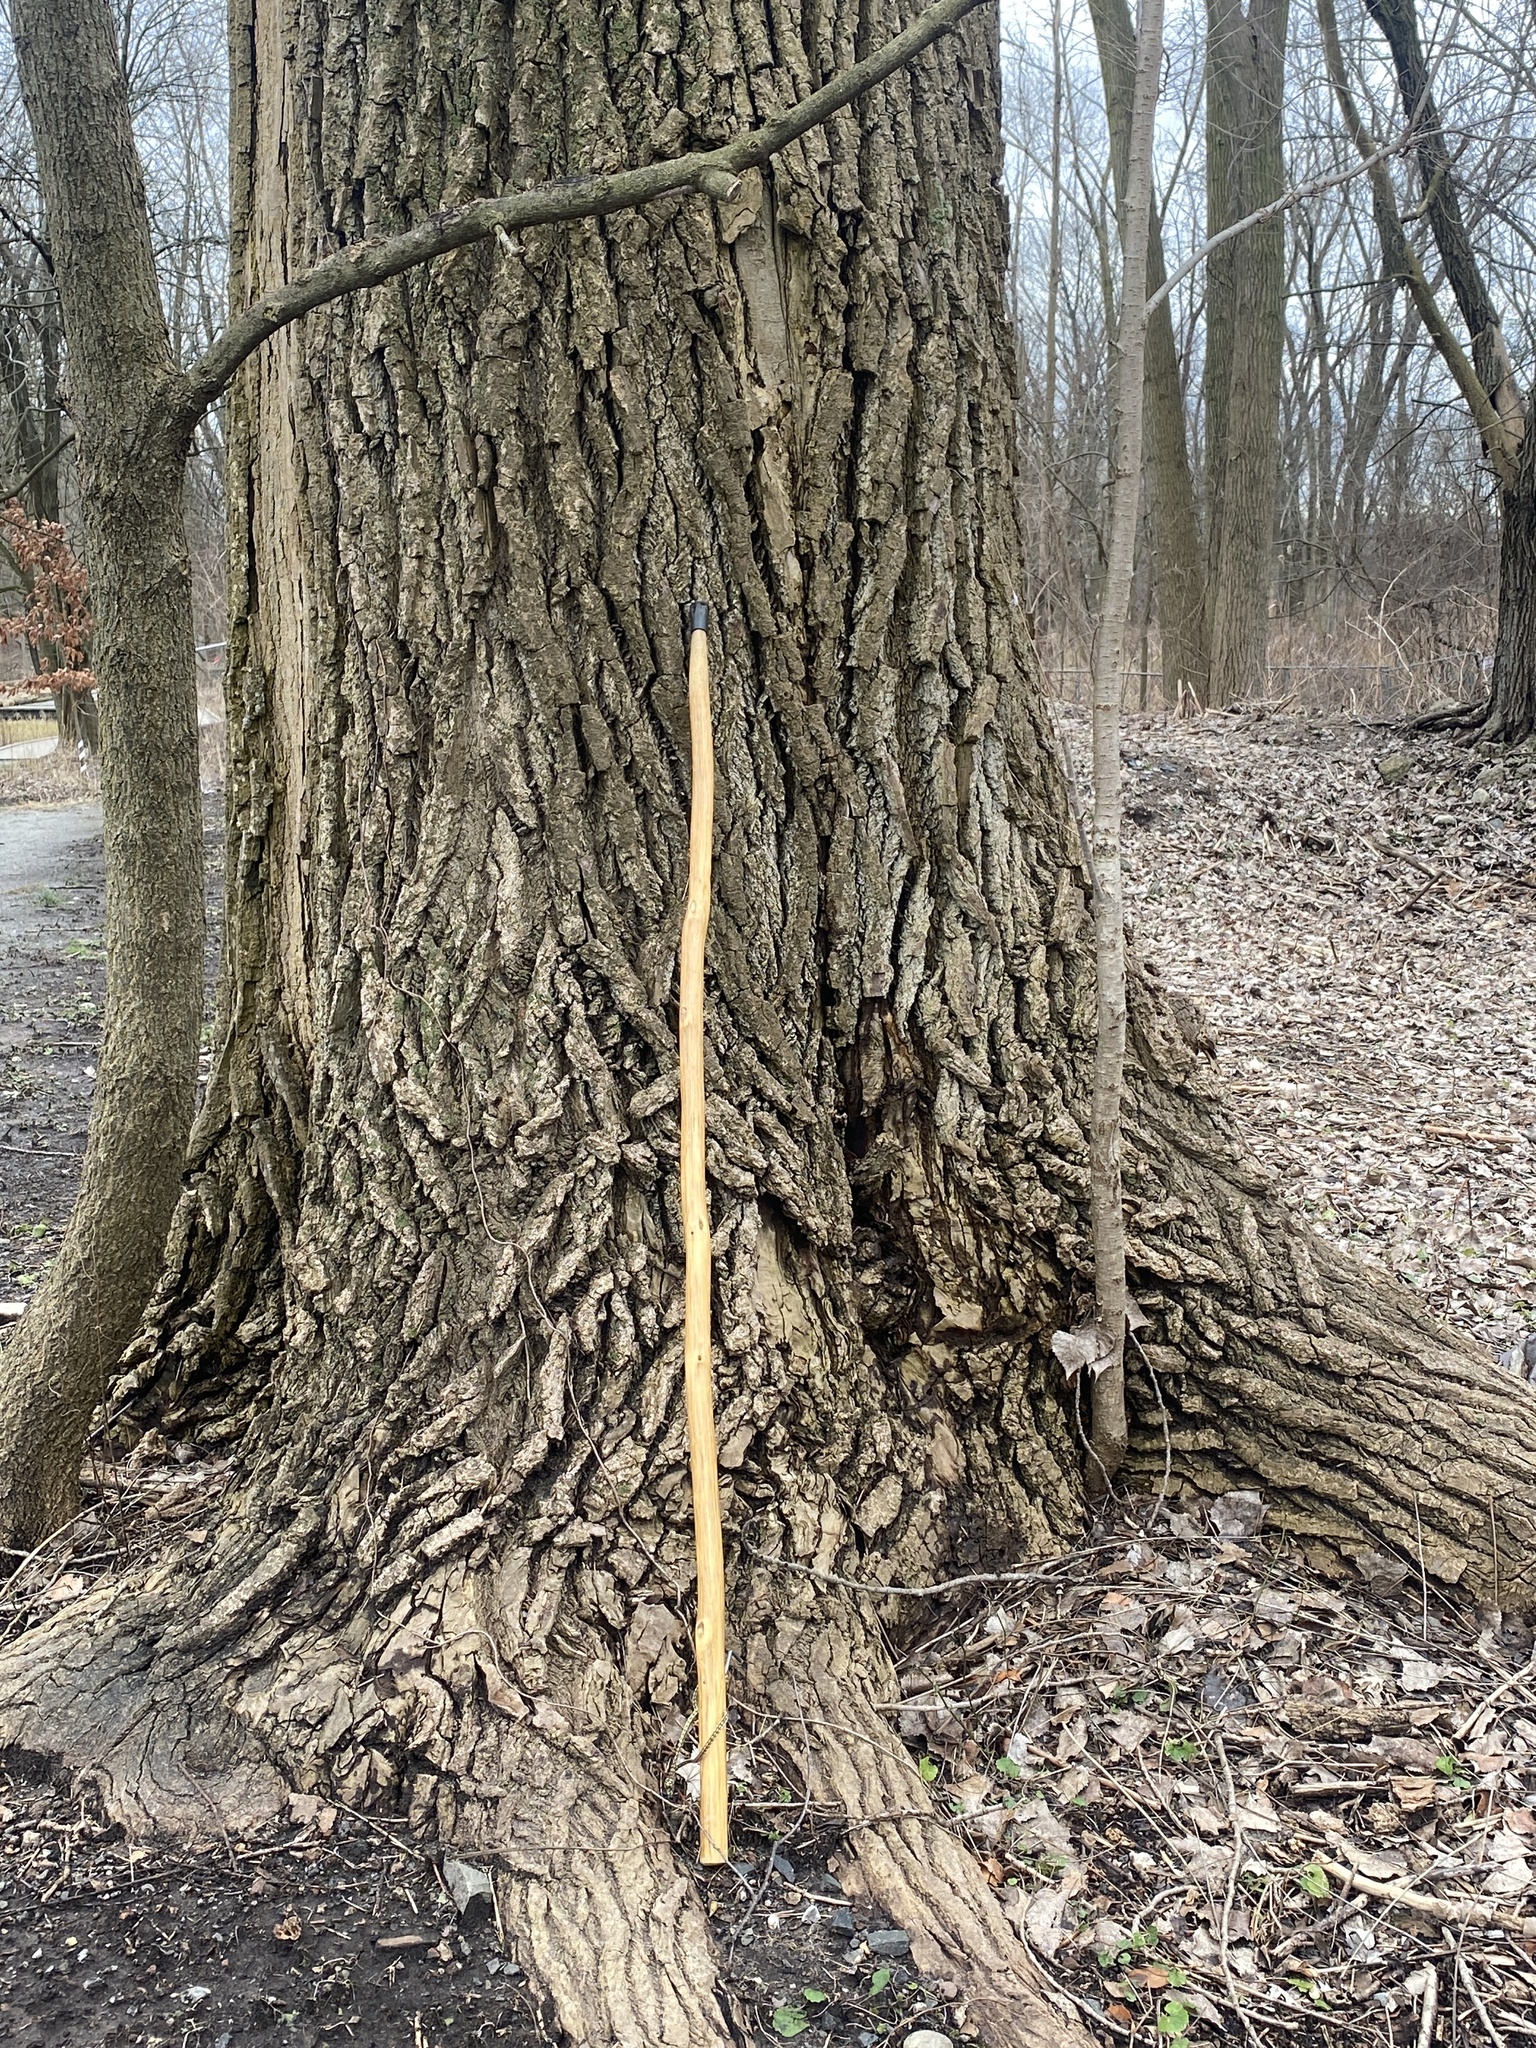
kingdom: Plantae
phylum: Tracheophyta
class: Magnoliopsida
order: Malpighiales
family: Salicaceae
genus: Populus
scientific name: Populus deltoides
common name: Eastern cottonwood
